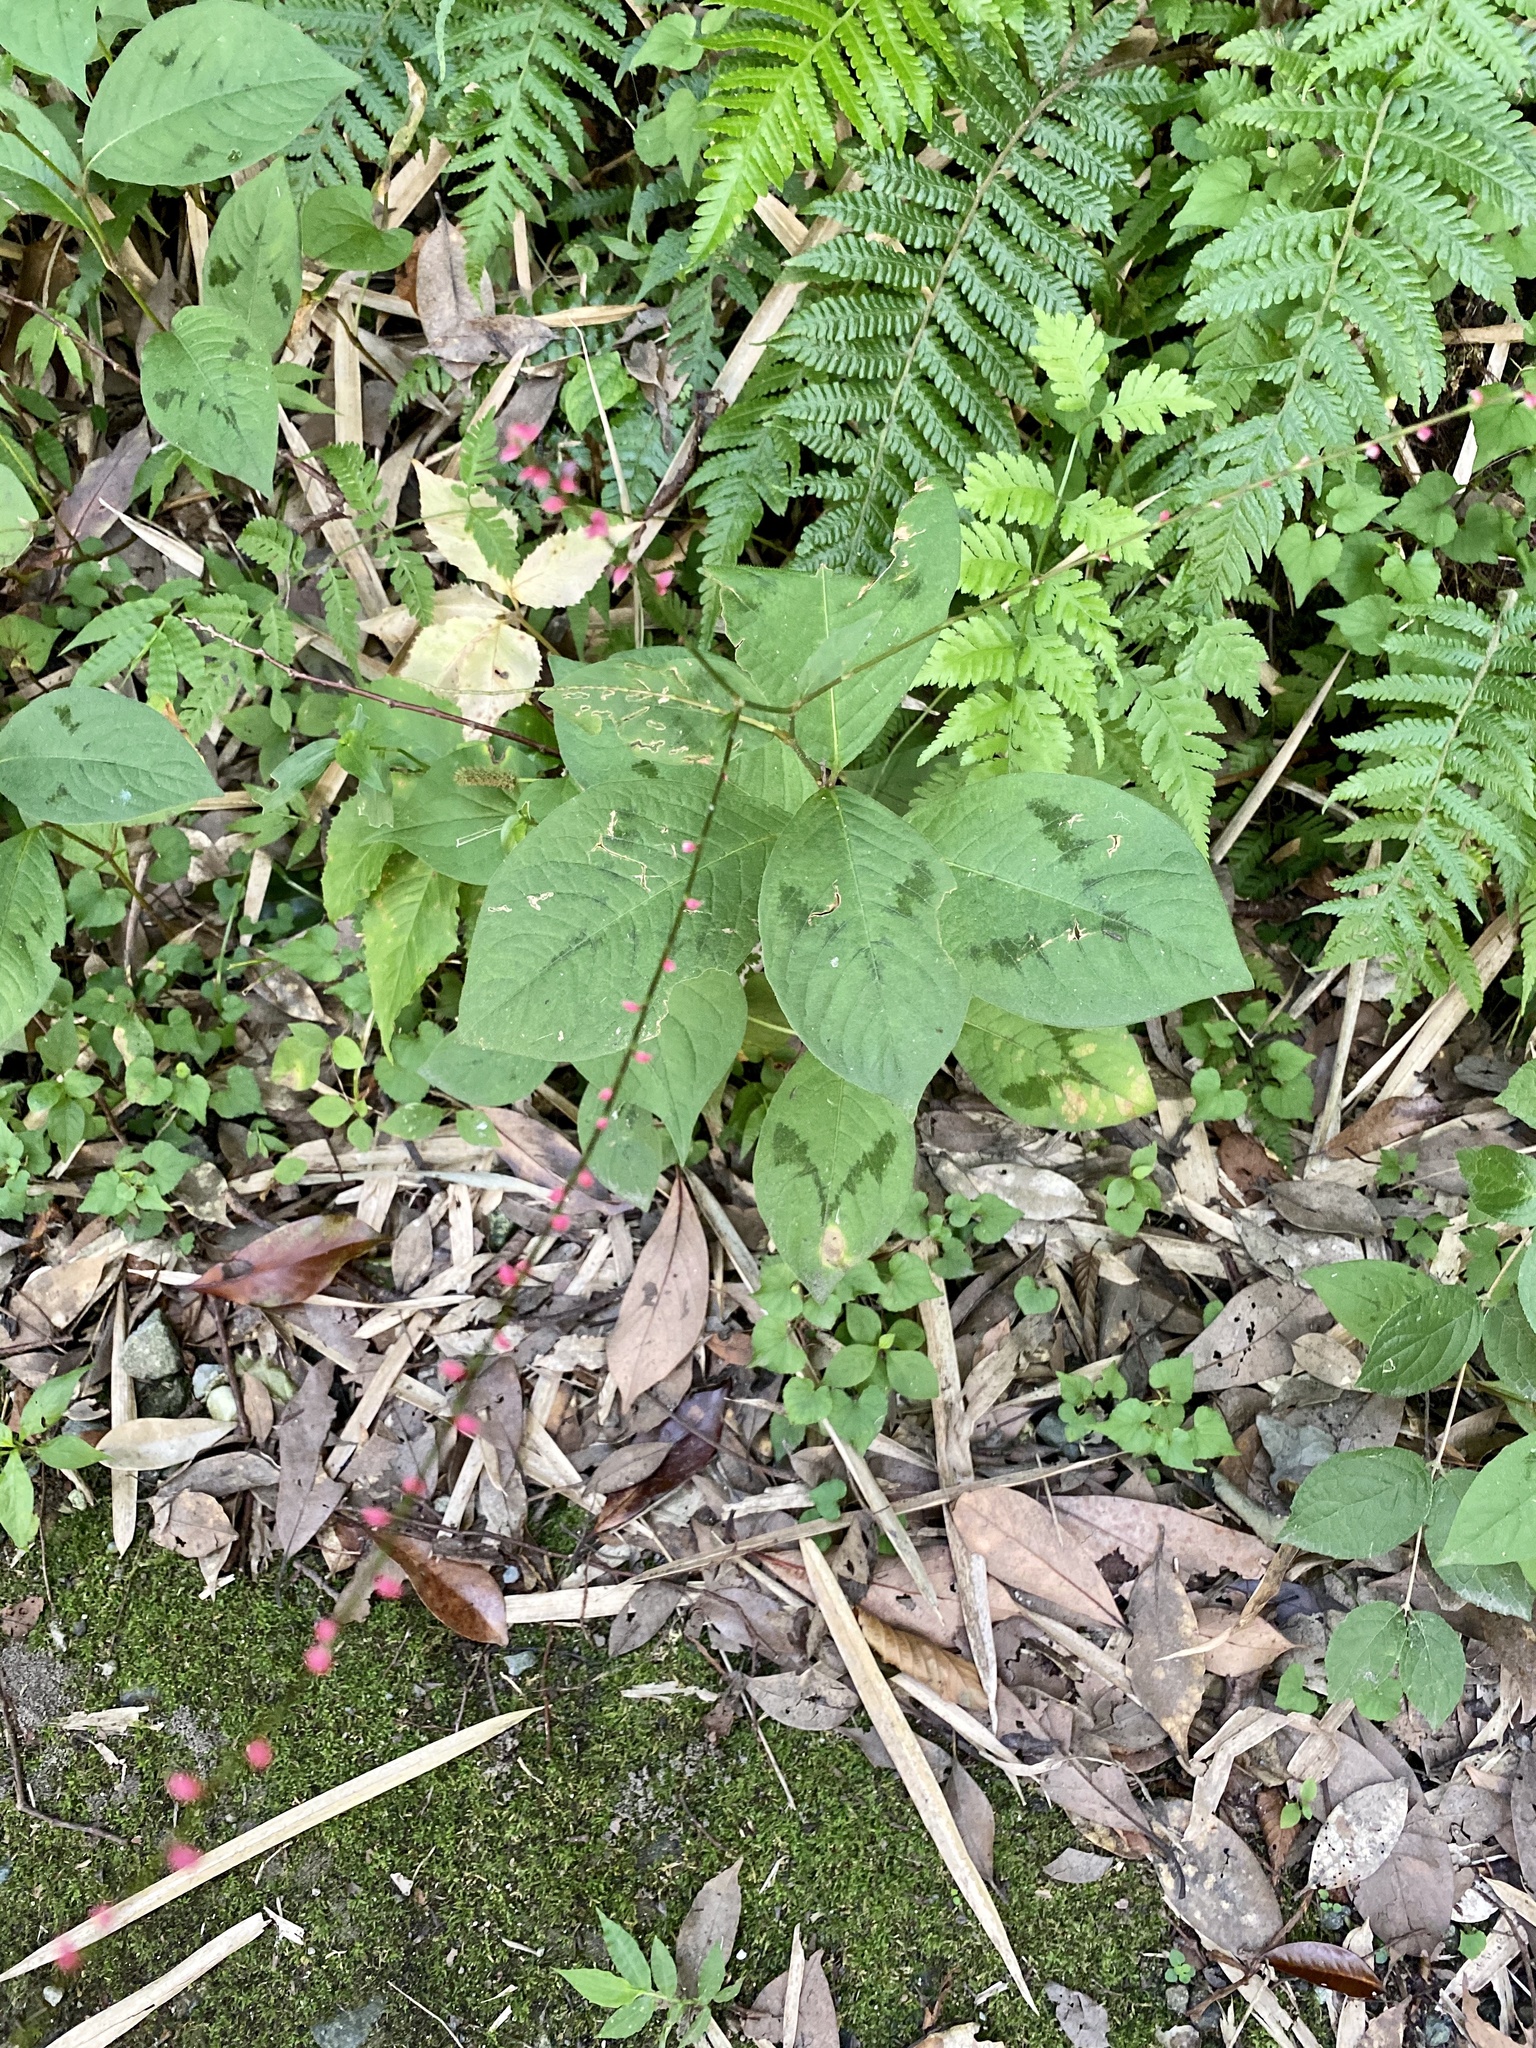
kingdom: Plantae
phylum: Tracheophyta
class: Magnoliopsida
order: Caryophyllales
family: Polygonaceae
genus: Persicaria
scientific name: Persicaria filiformis
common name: Asian jumpseed
